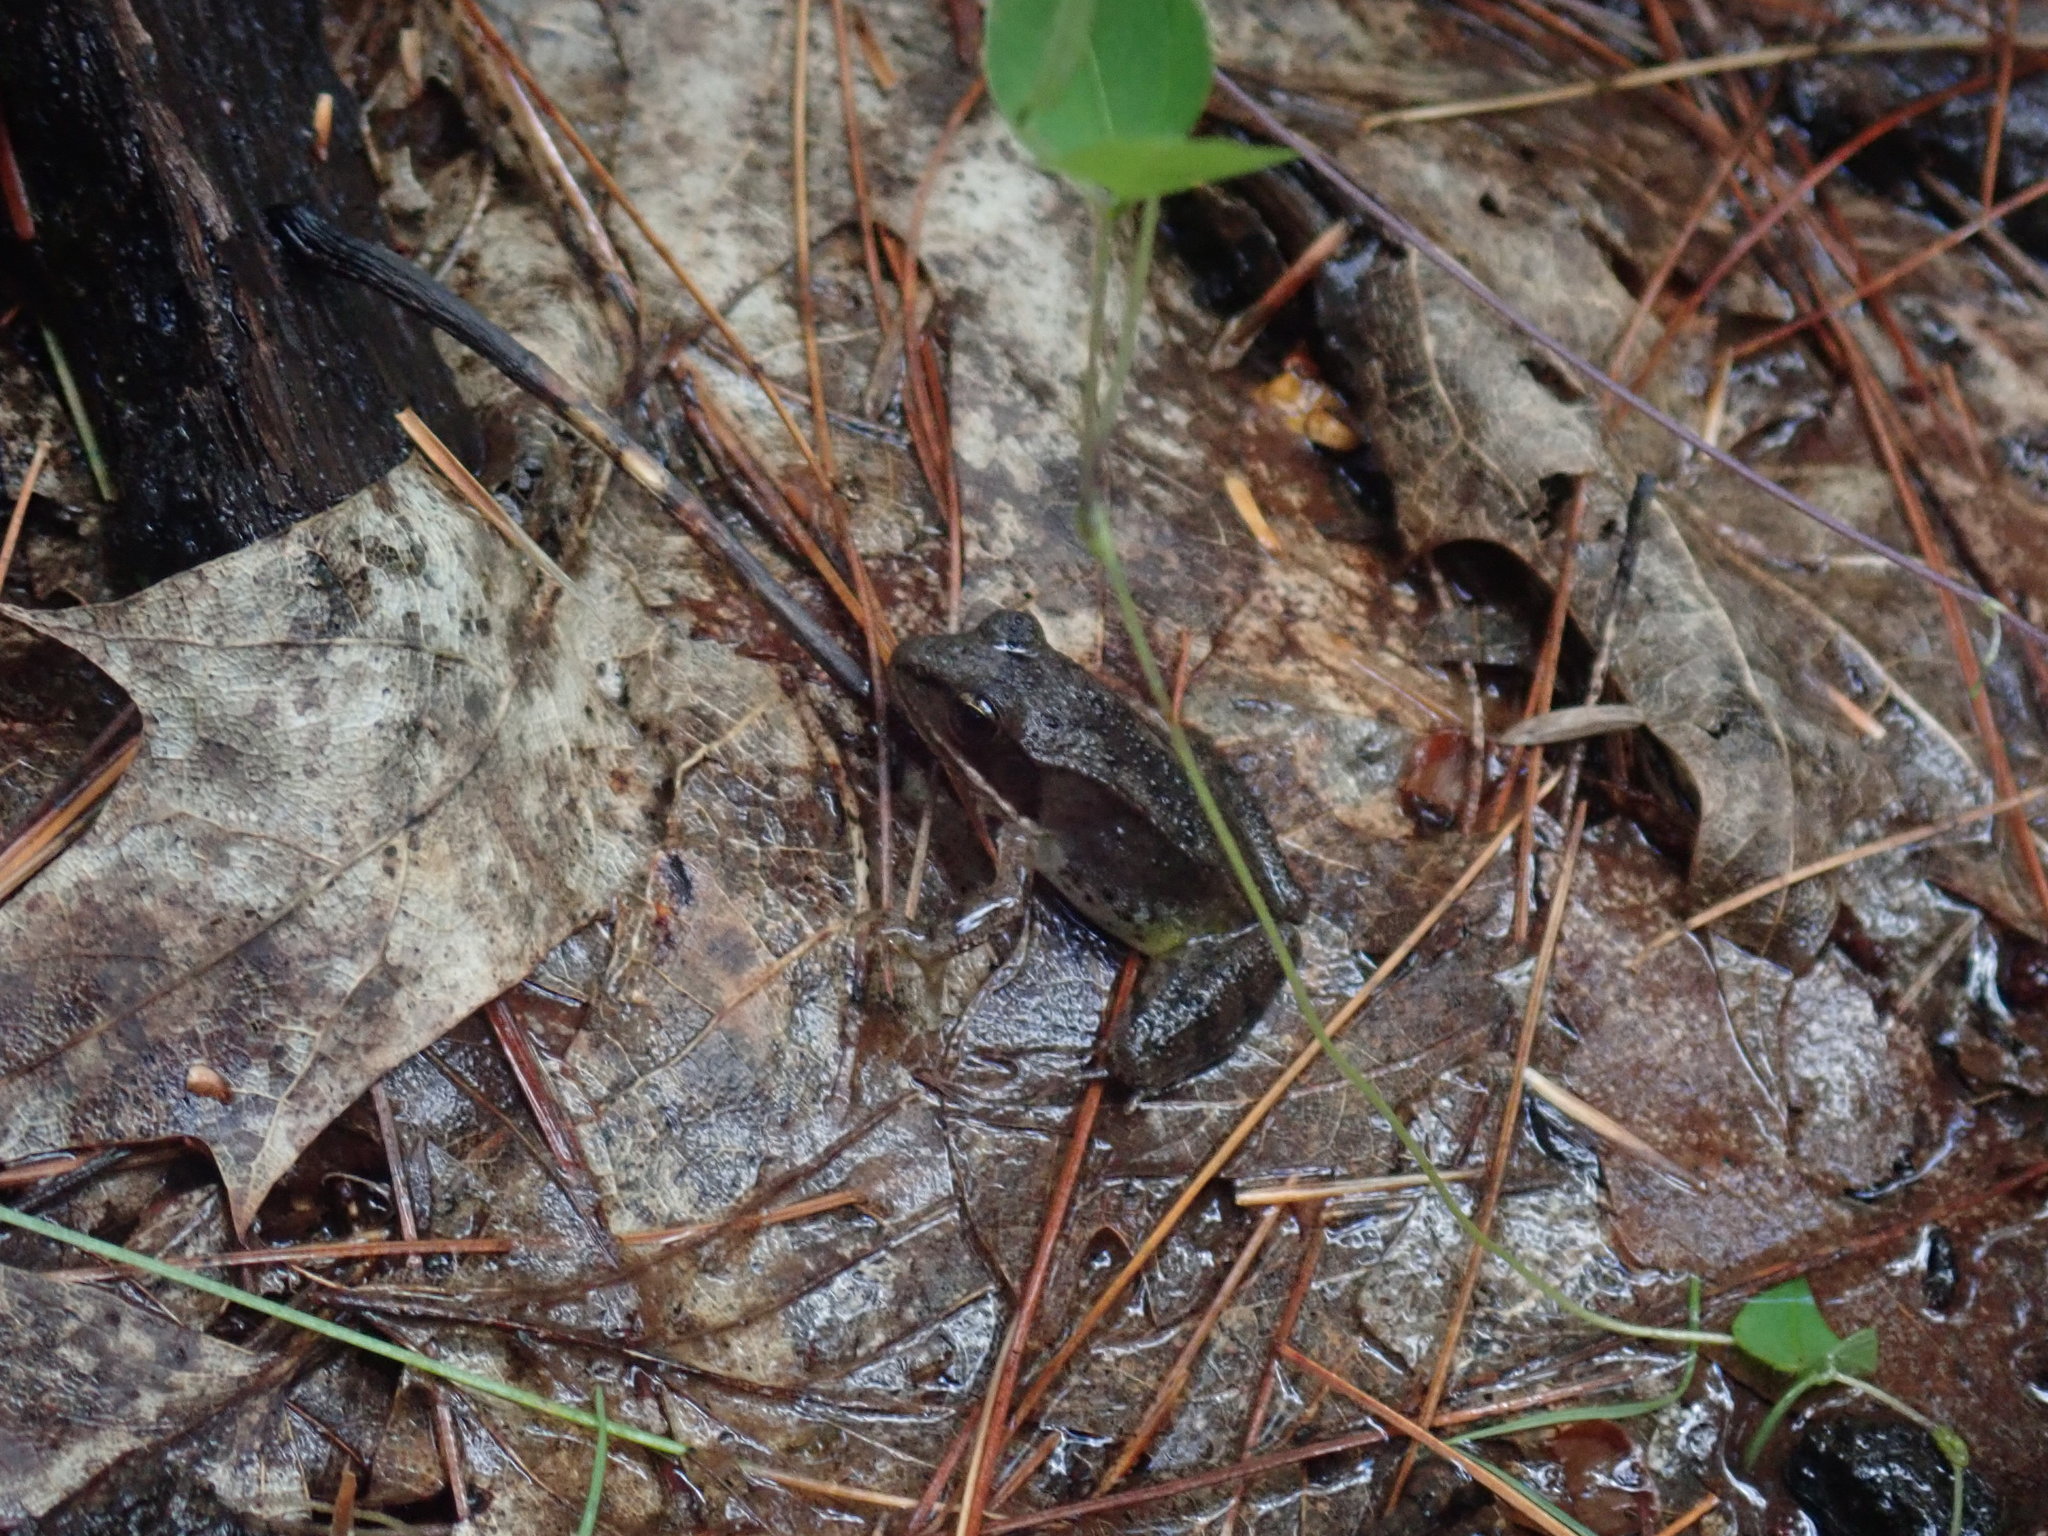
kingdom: Animalia
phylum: Chordata
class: Amphibia
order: Anura
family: Ranidae
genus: Lithobates
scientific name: Lithobates sylvaticus
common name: Wood frog
